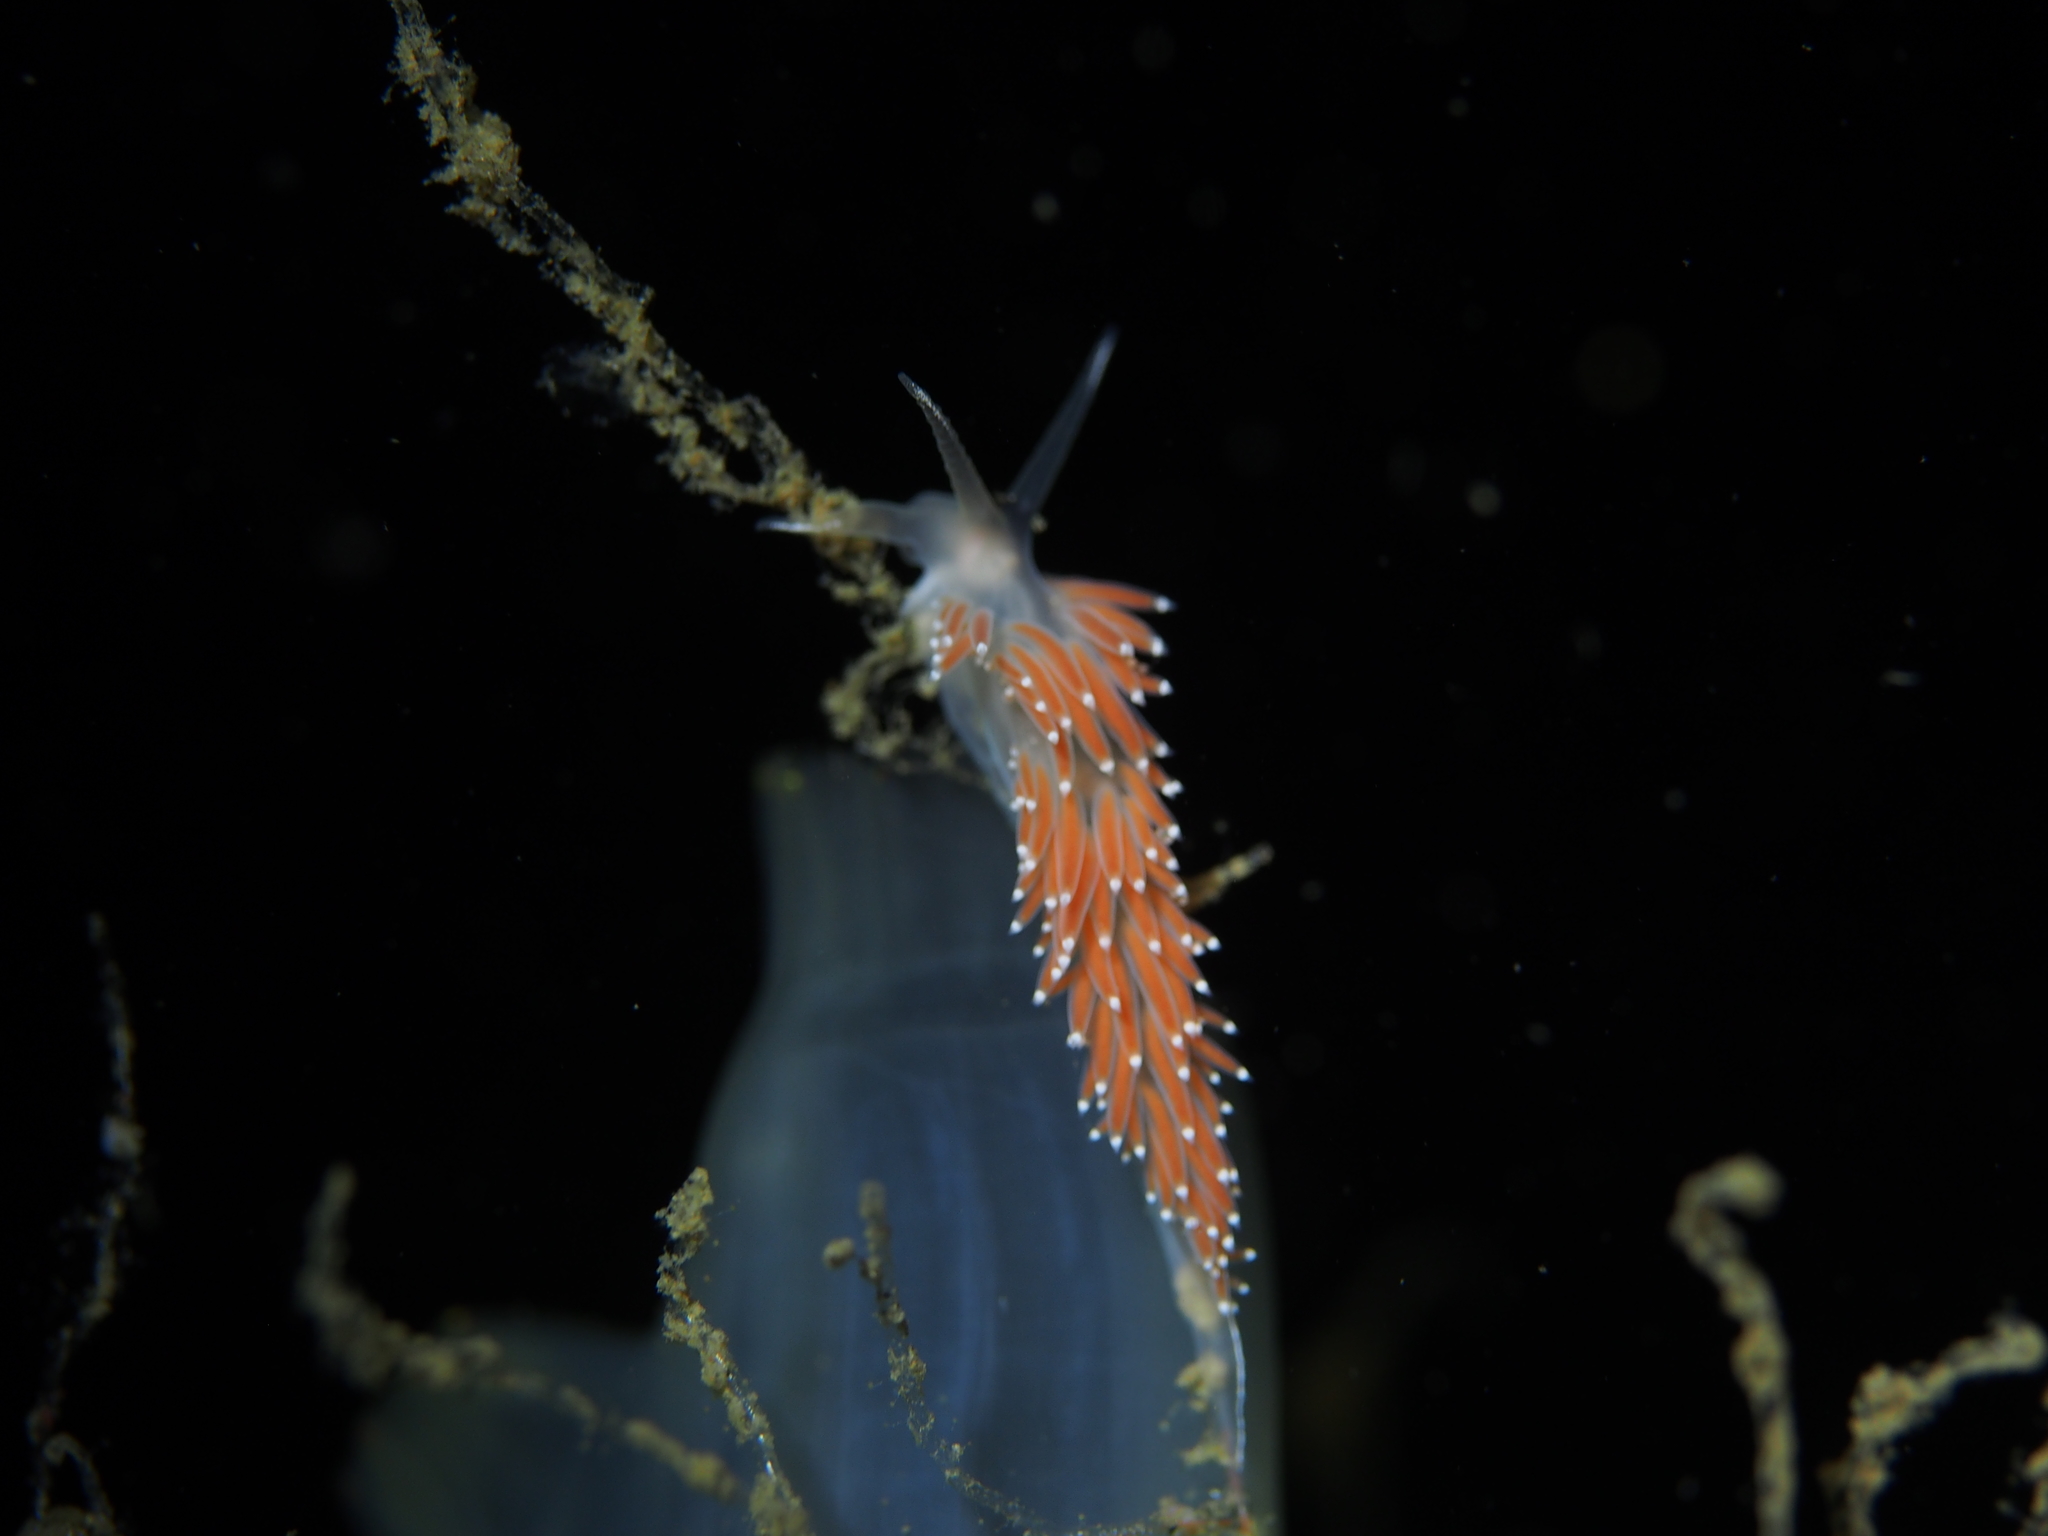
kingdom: Animalia
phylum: Mollusca
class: Gastropoda
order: Nudibranchia
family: Coryphellidae
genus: Coryphella
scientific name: Coryphella verrucosa
